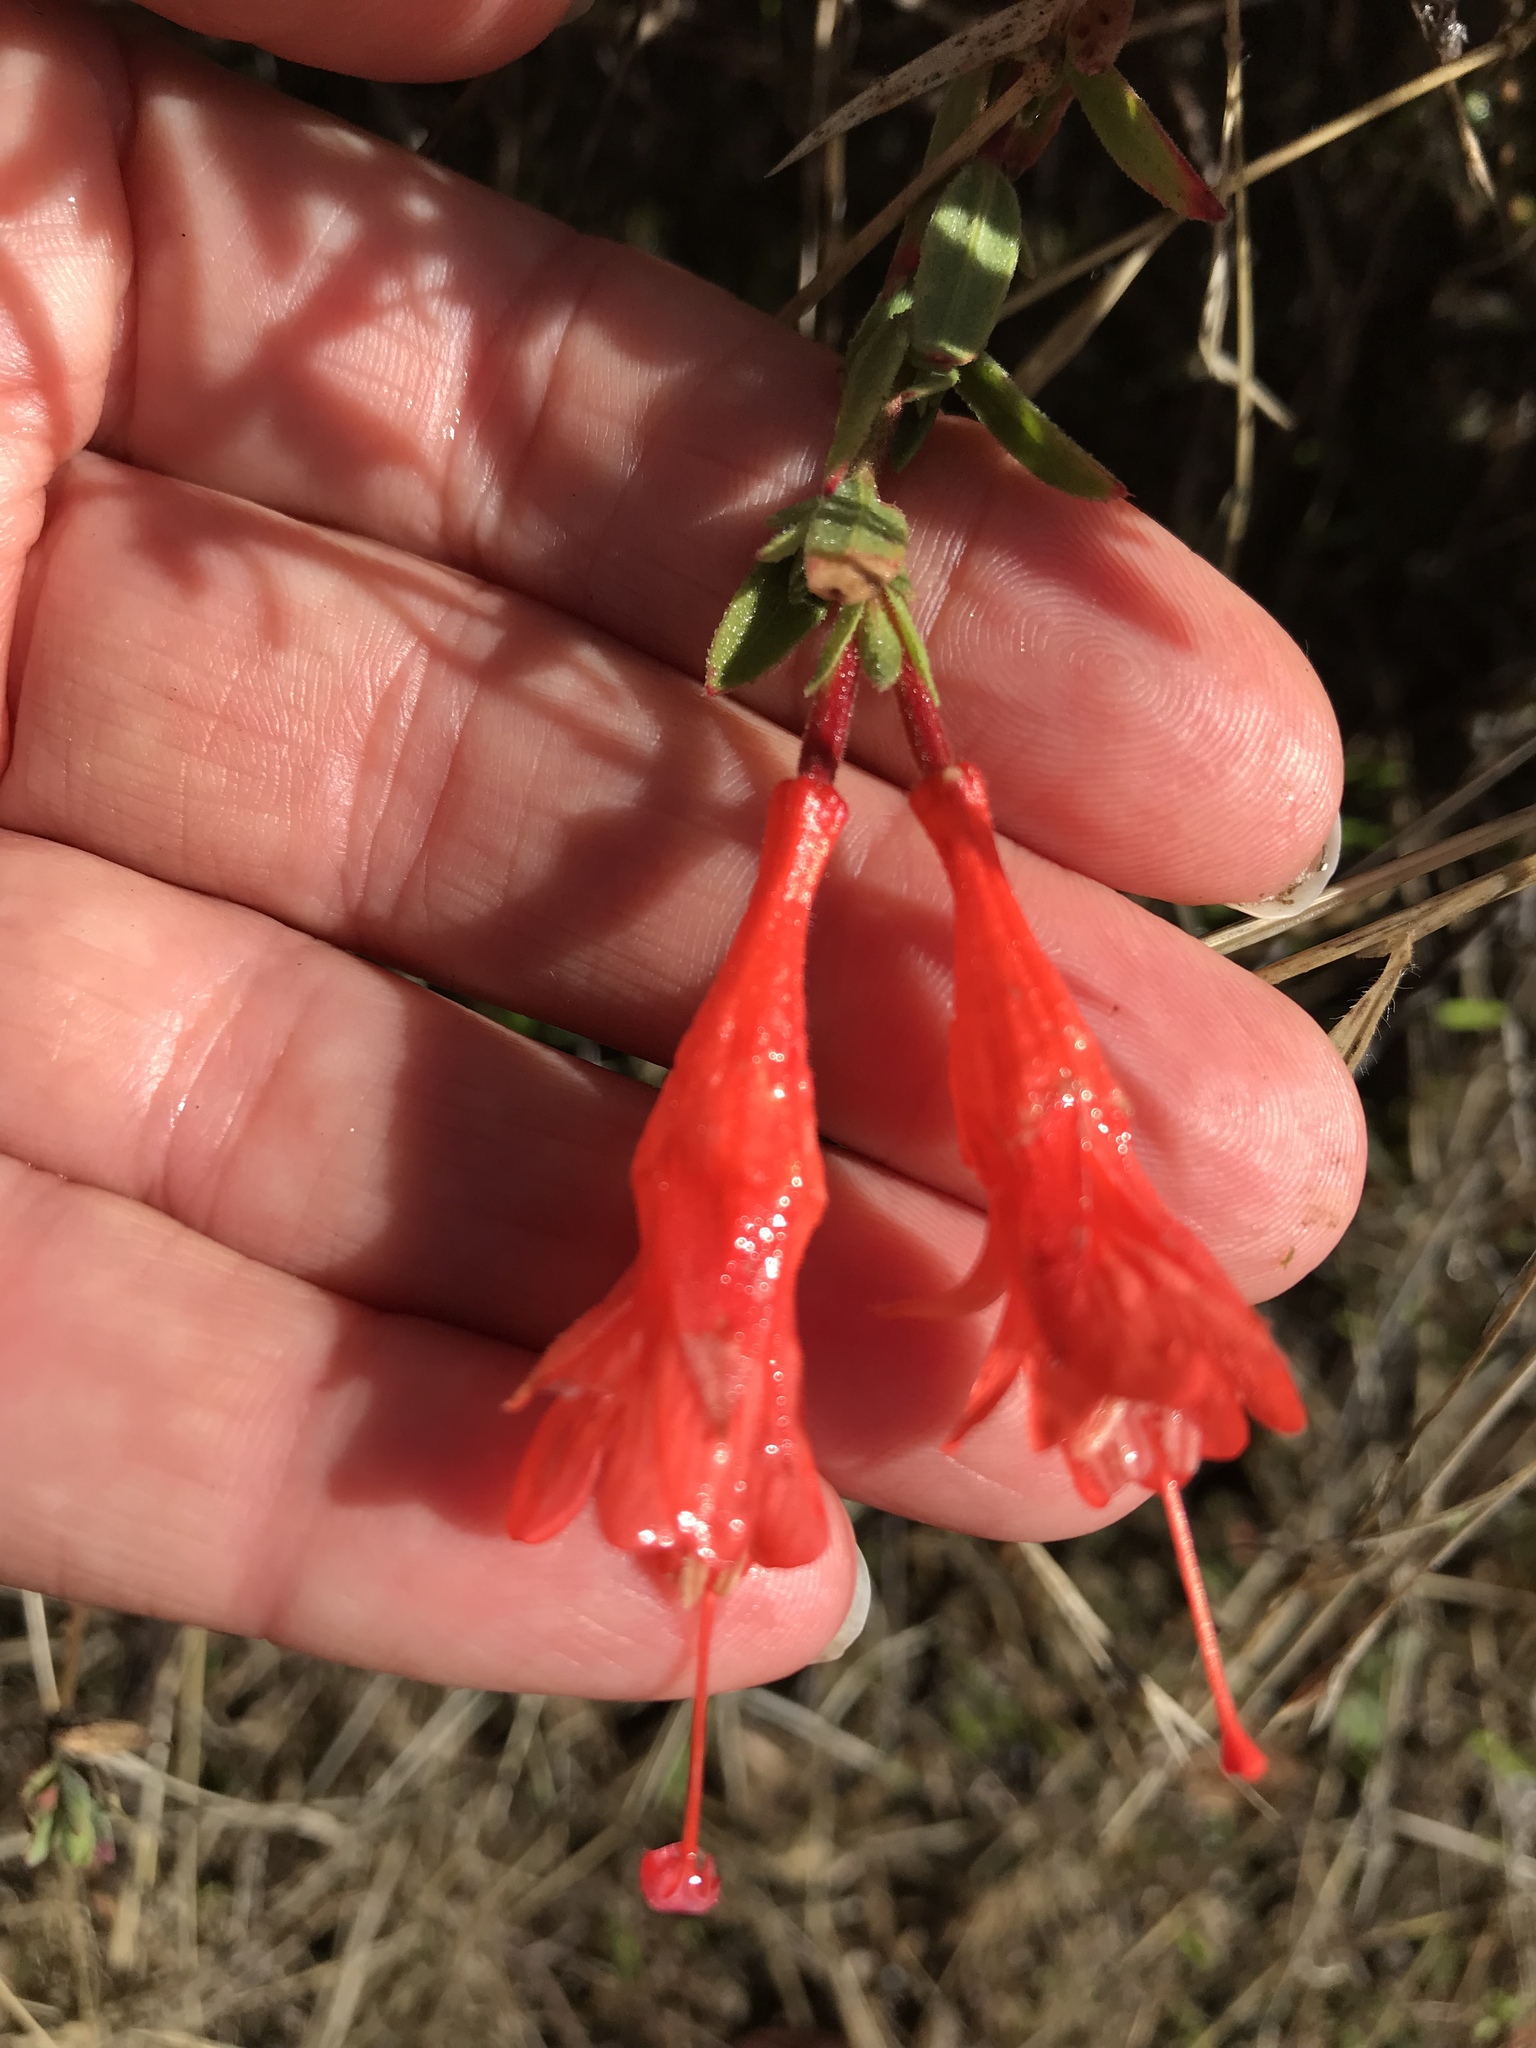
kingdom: Plantae
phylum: Tracheophyta
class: Magnoliopsida
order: Myrtales
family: Onagraceae
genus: Epilobium
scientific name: Epilobium canum
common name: California-fuchsia
